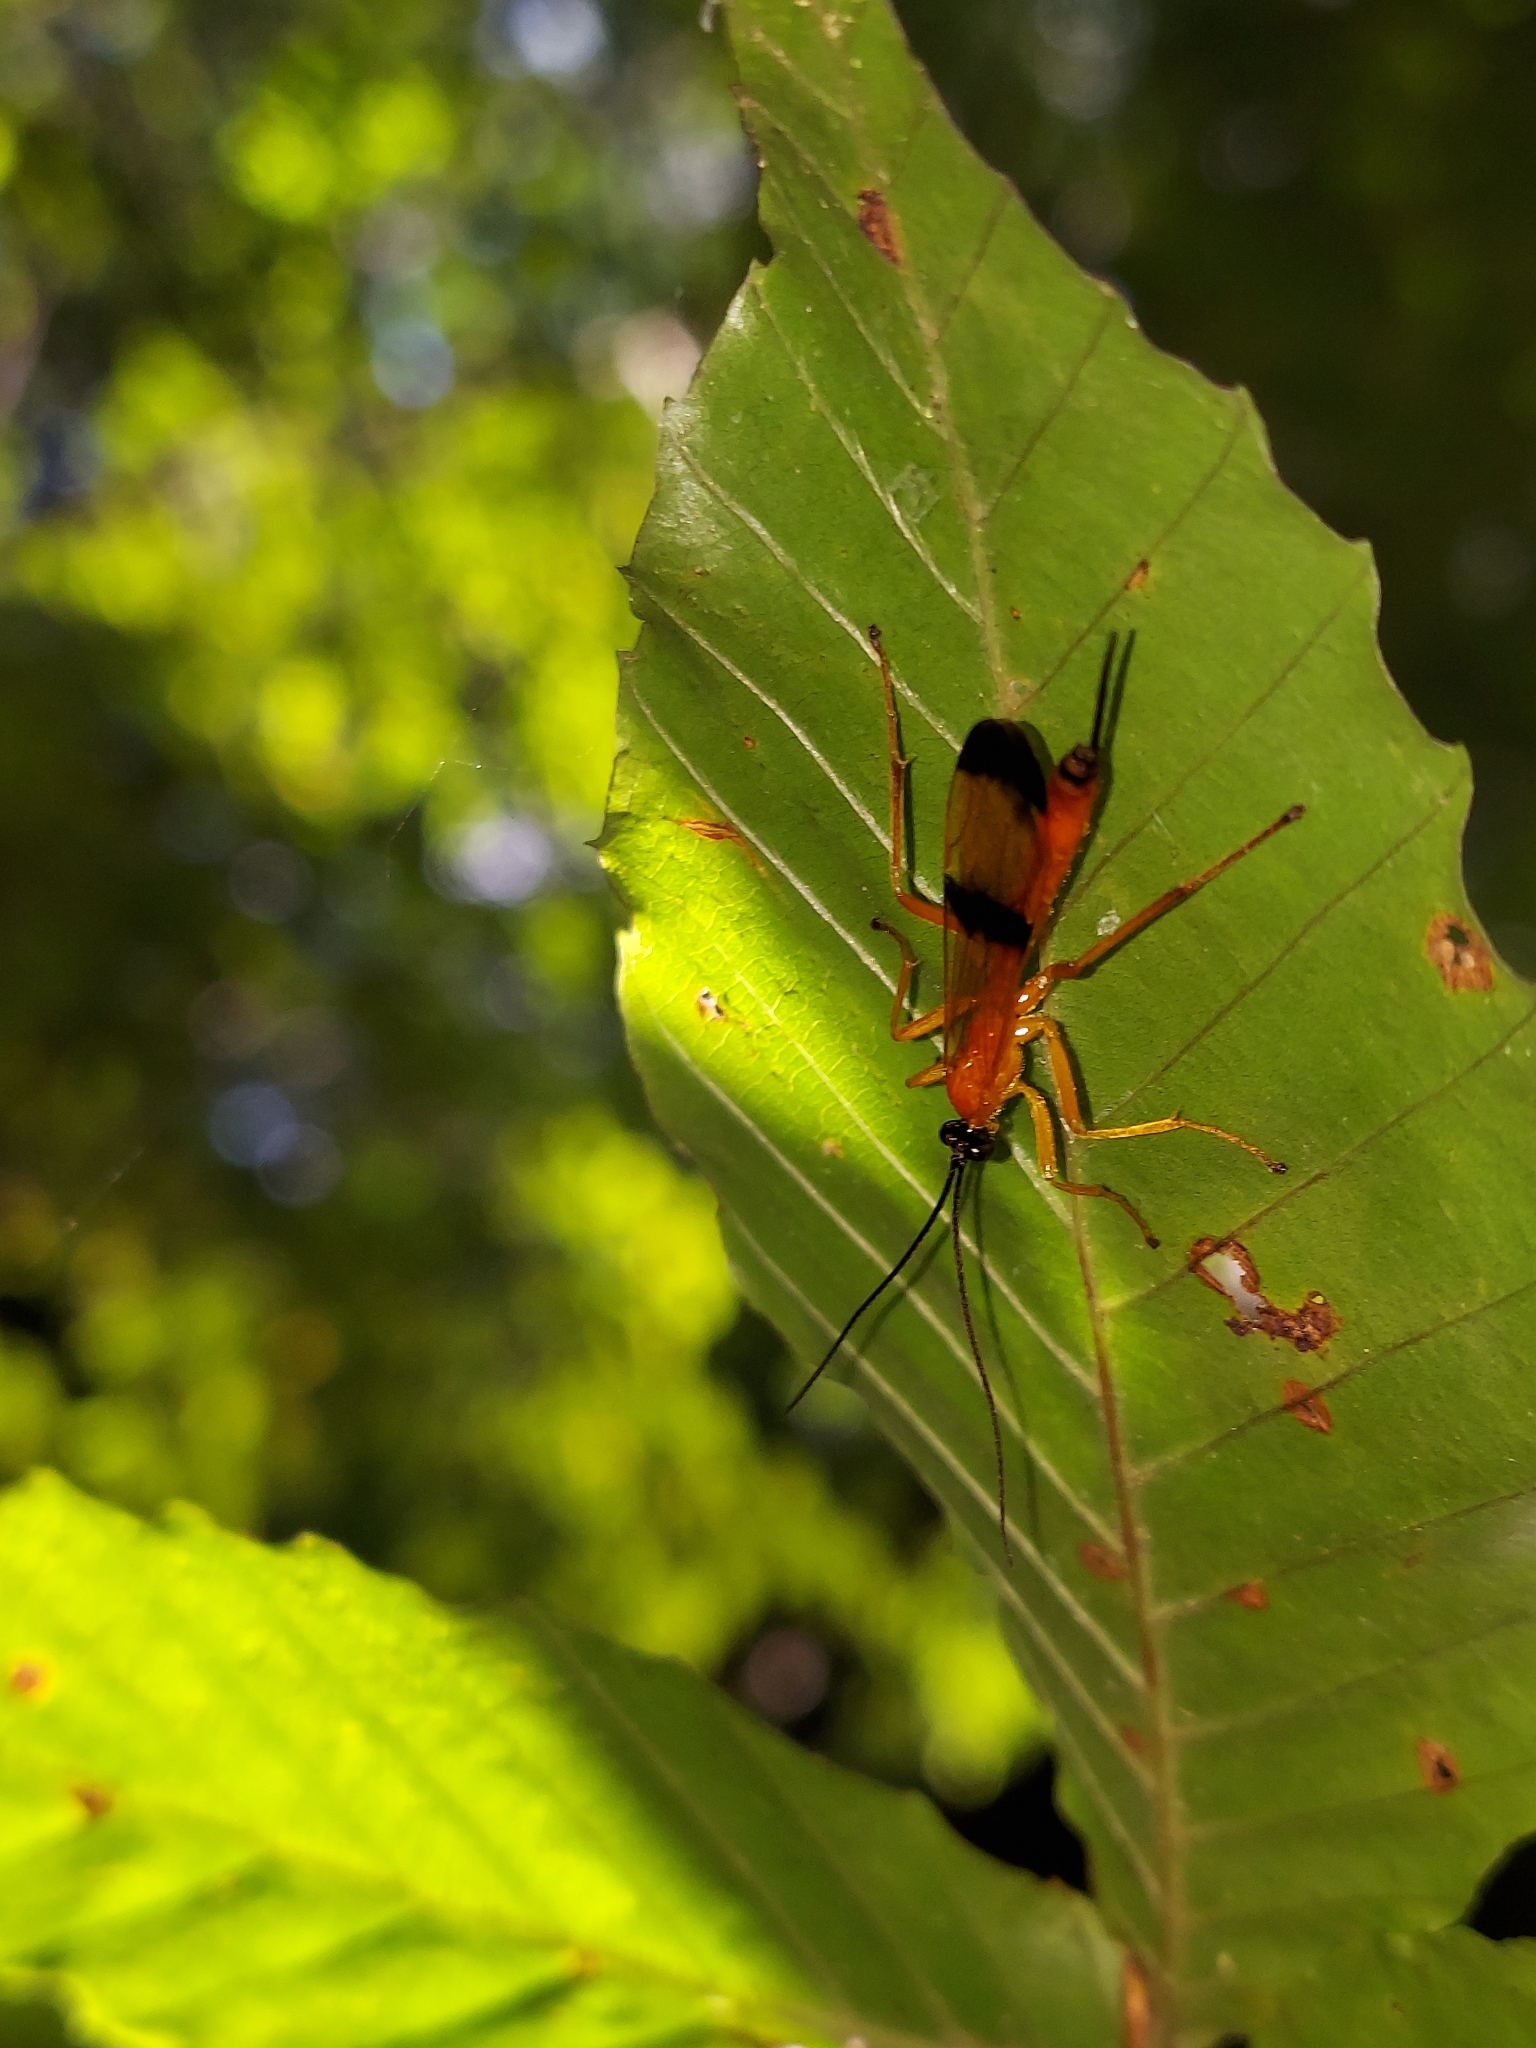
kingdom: Animalia
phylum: Arthropoda
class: Insecta
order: Hymenoptera
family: Ichneumonidae
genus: Acrotaphus
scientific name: Acrotaphus wiltii
